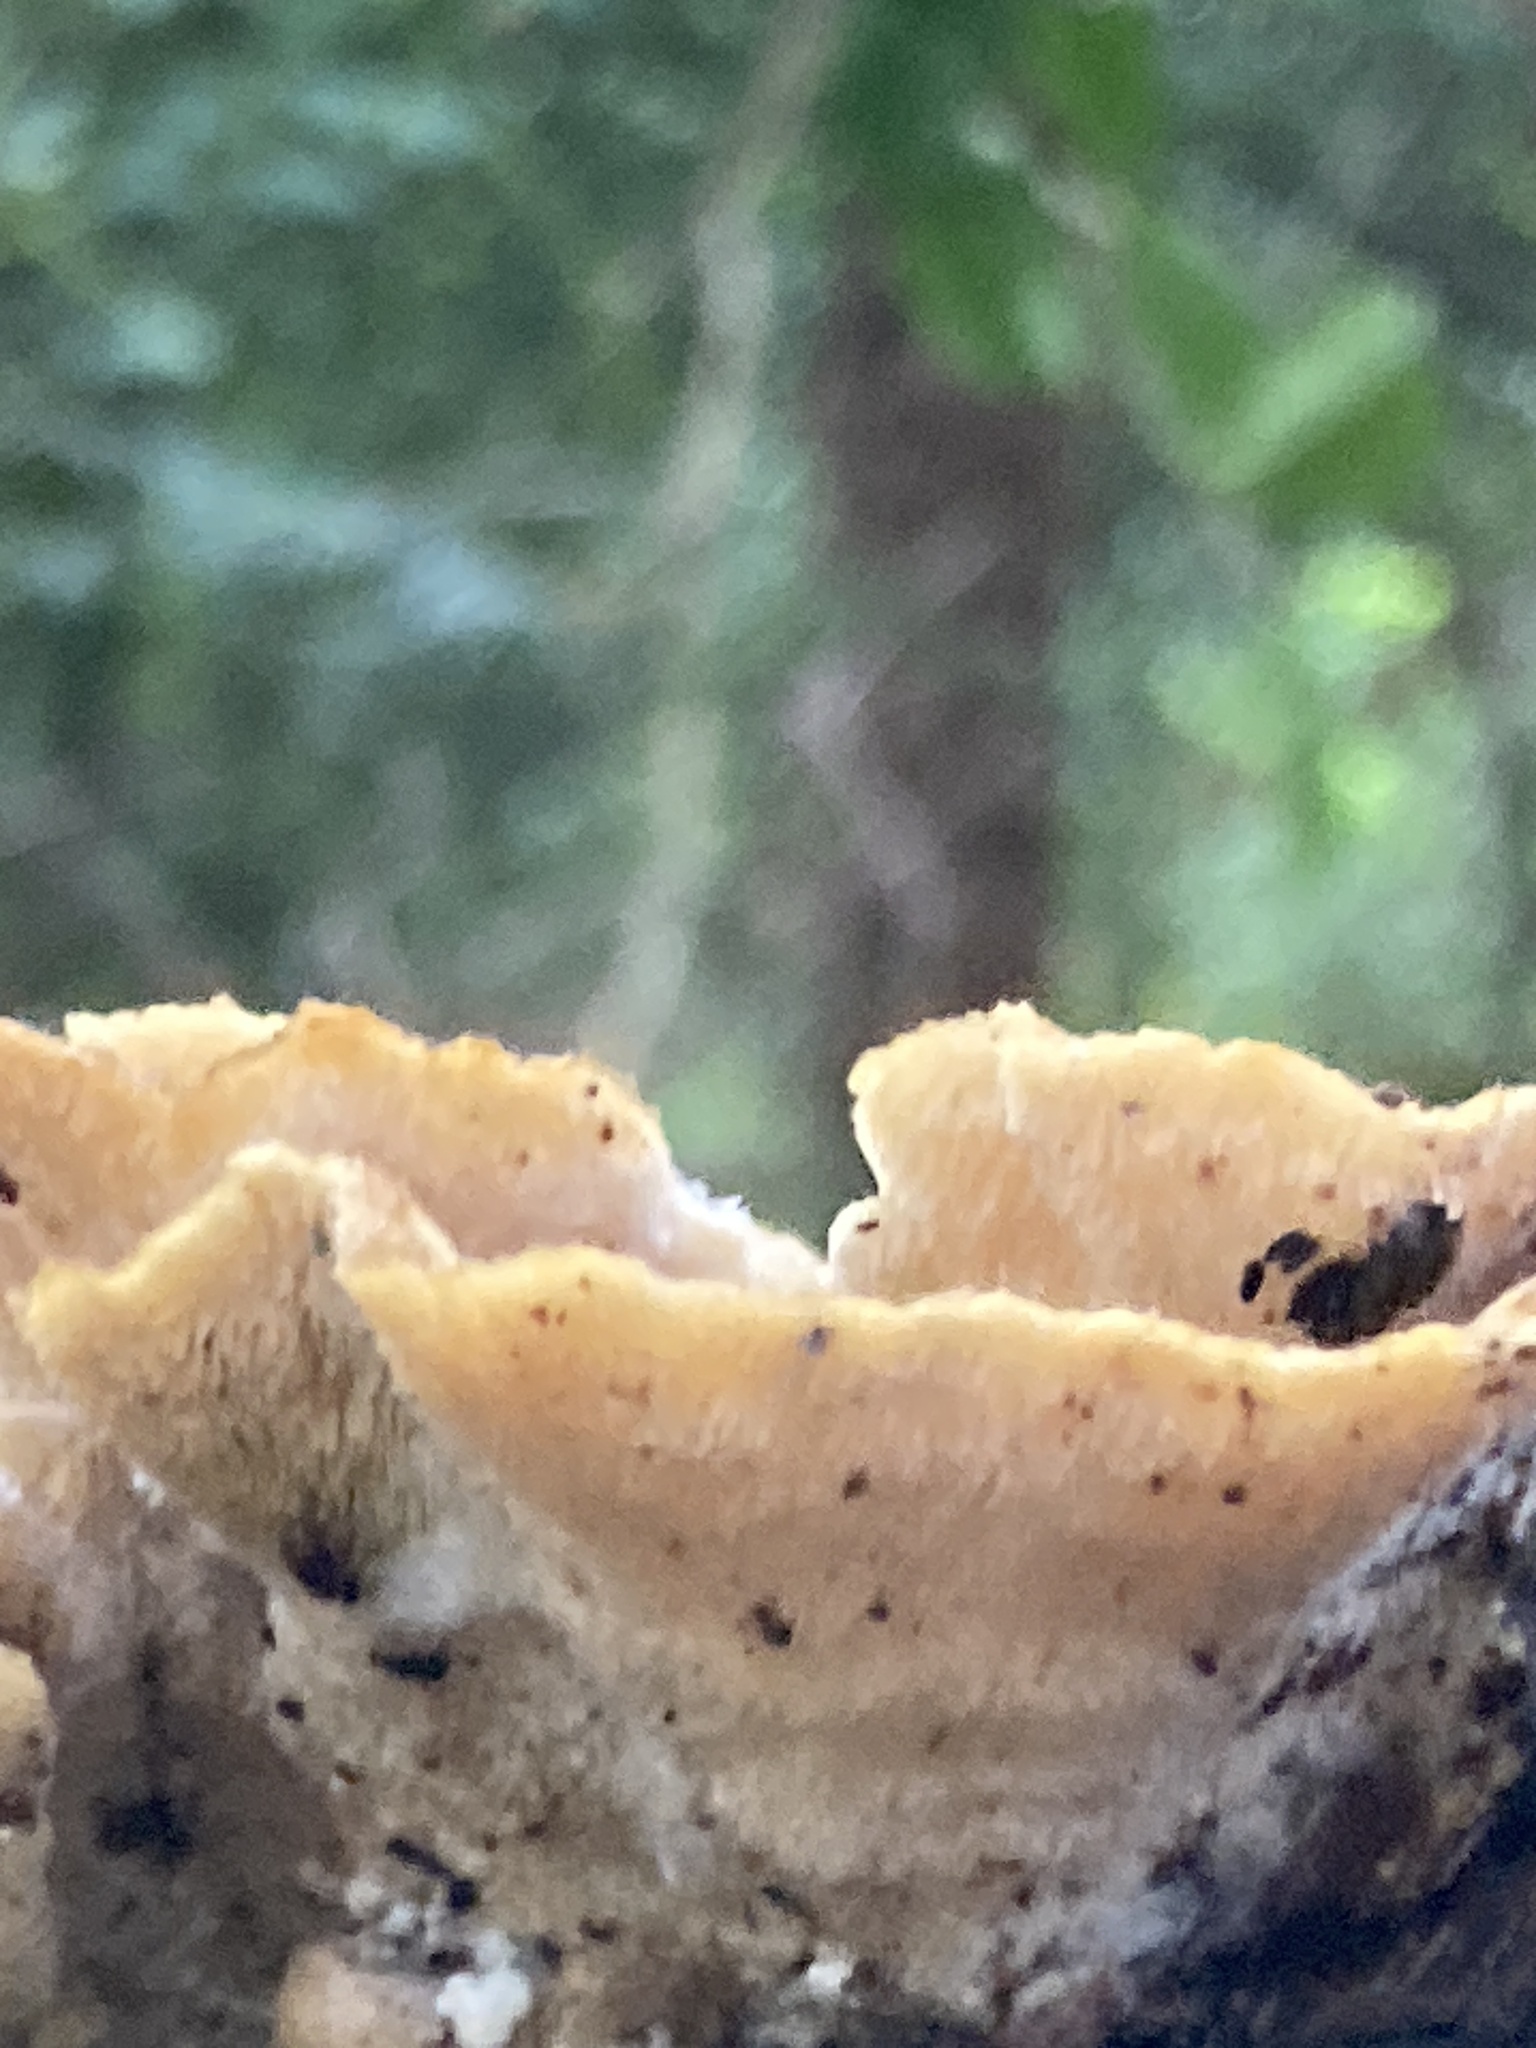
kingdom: Fungi
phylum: Basidiomycota
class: Agaricomycetes
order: Polyporales
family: Polyporaceae
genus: Trametes
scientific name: Trametes versicolor
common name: Turkeytail
